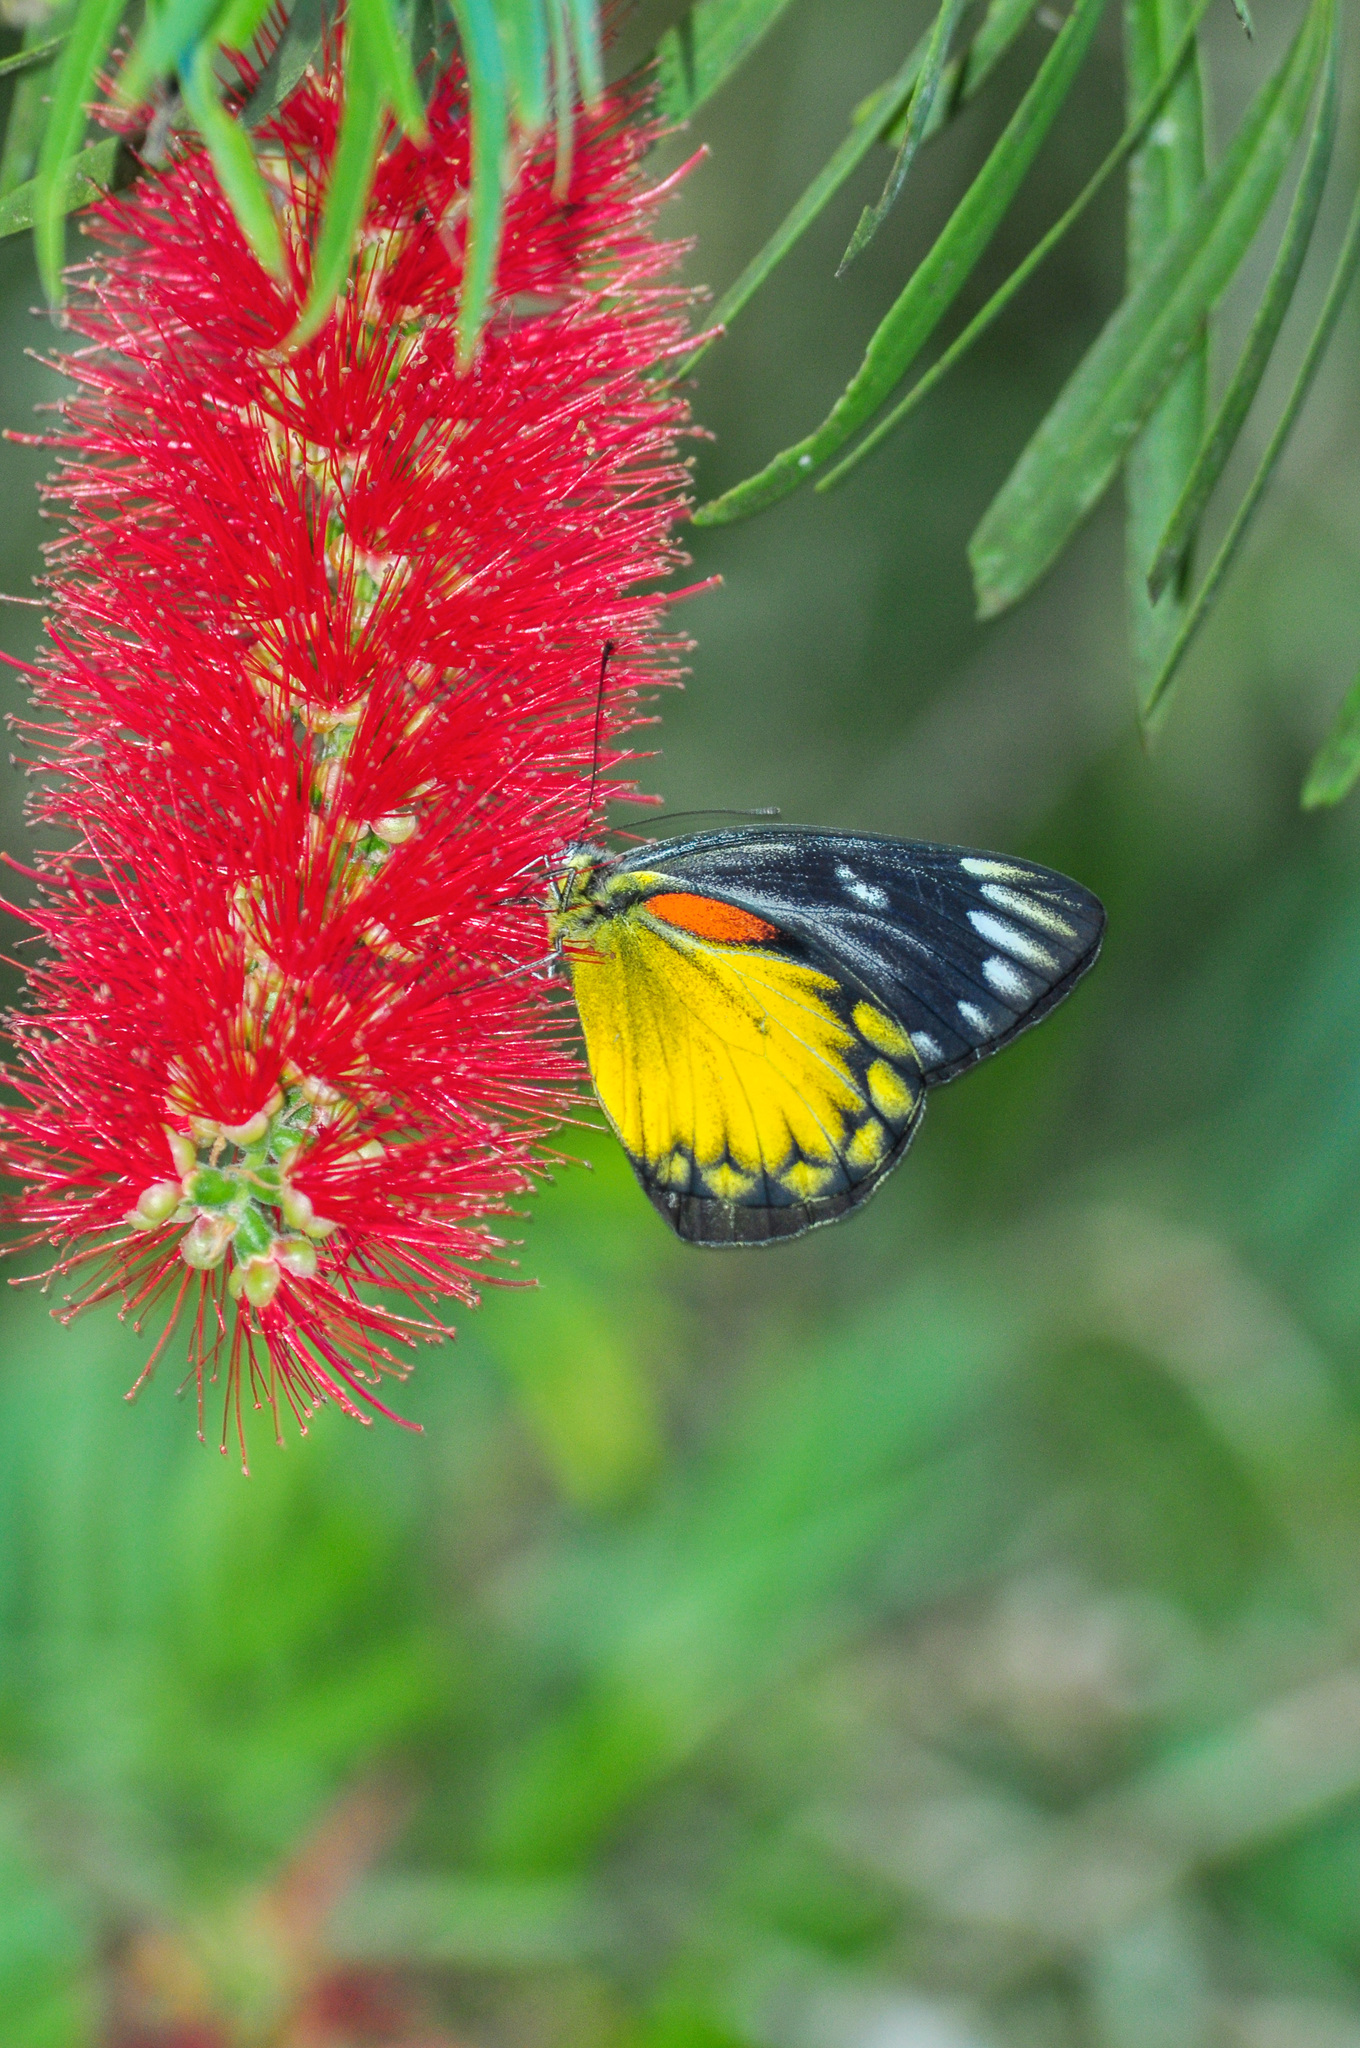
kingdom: Animalia
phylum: Arthropoda
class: Insecta
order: Lepidoptera
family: Pieridae
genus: Delias
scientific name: Delias descombesi
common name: Red-spot jezebel
